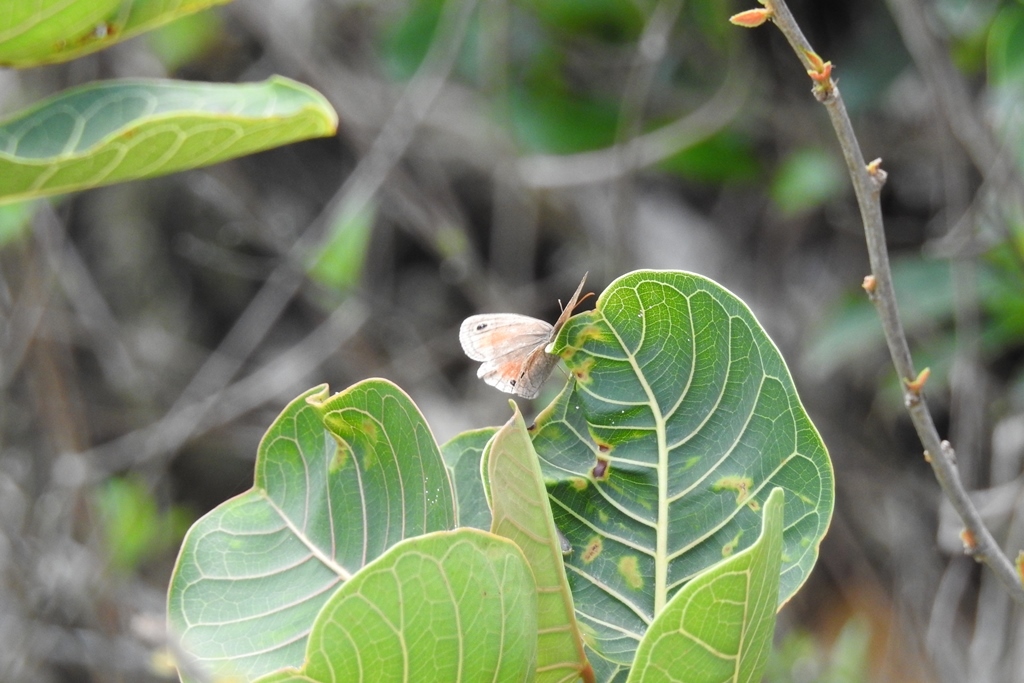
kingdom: Animalia
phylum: Arthropoda
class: Insecta
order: Lepidoptera
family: Nymphalidae
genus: Euptychia
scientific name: Euptychia
